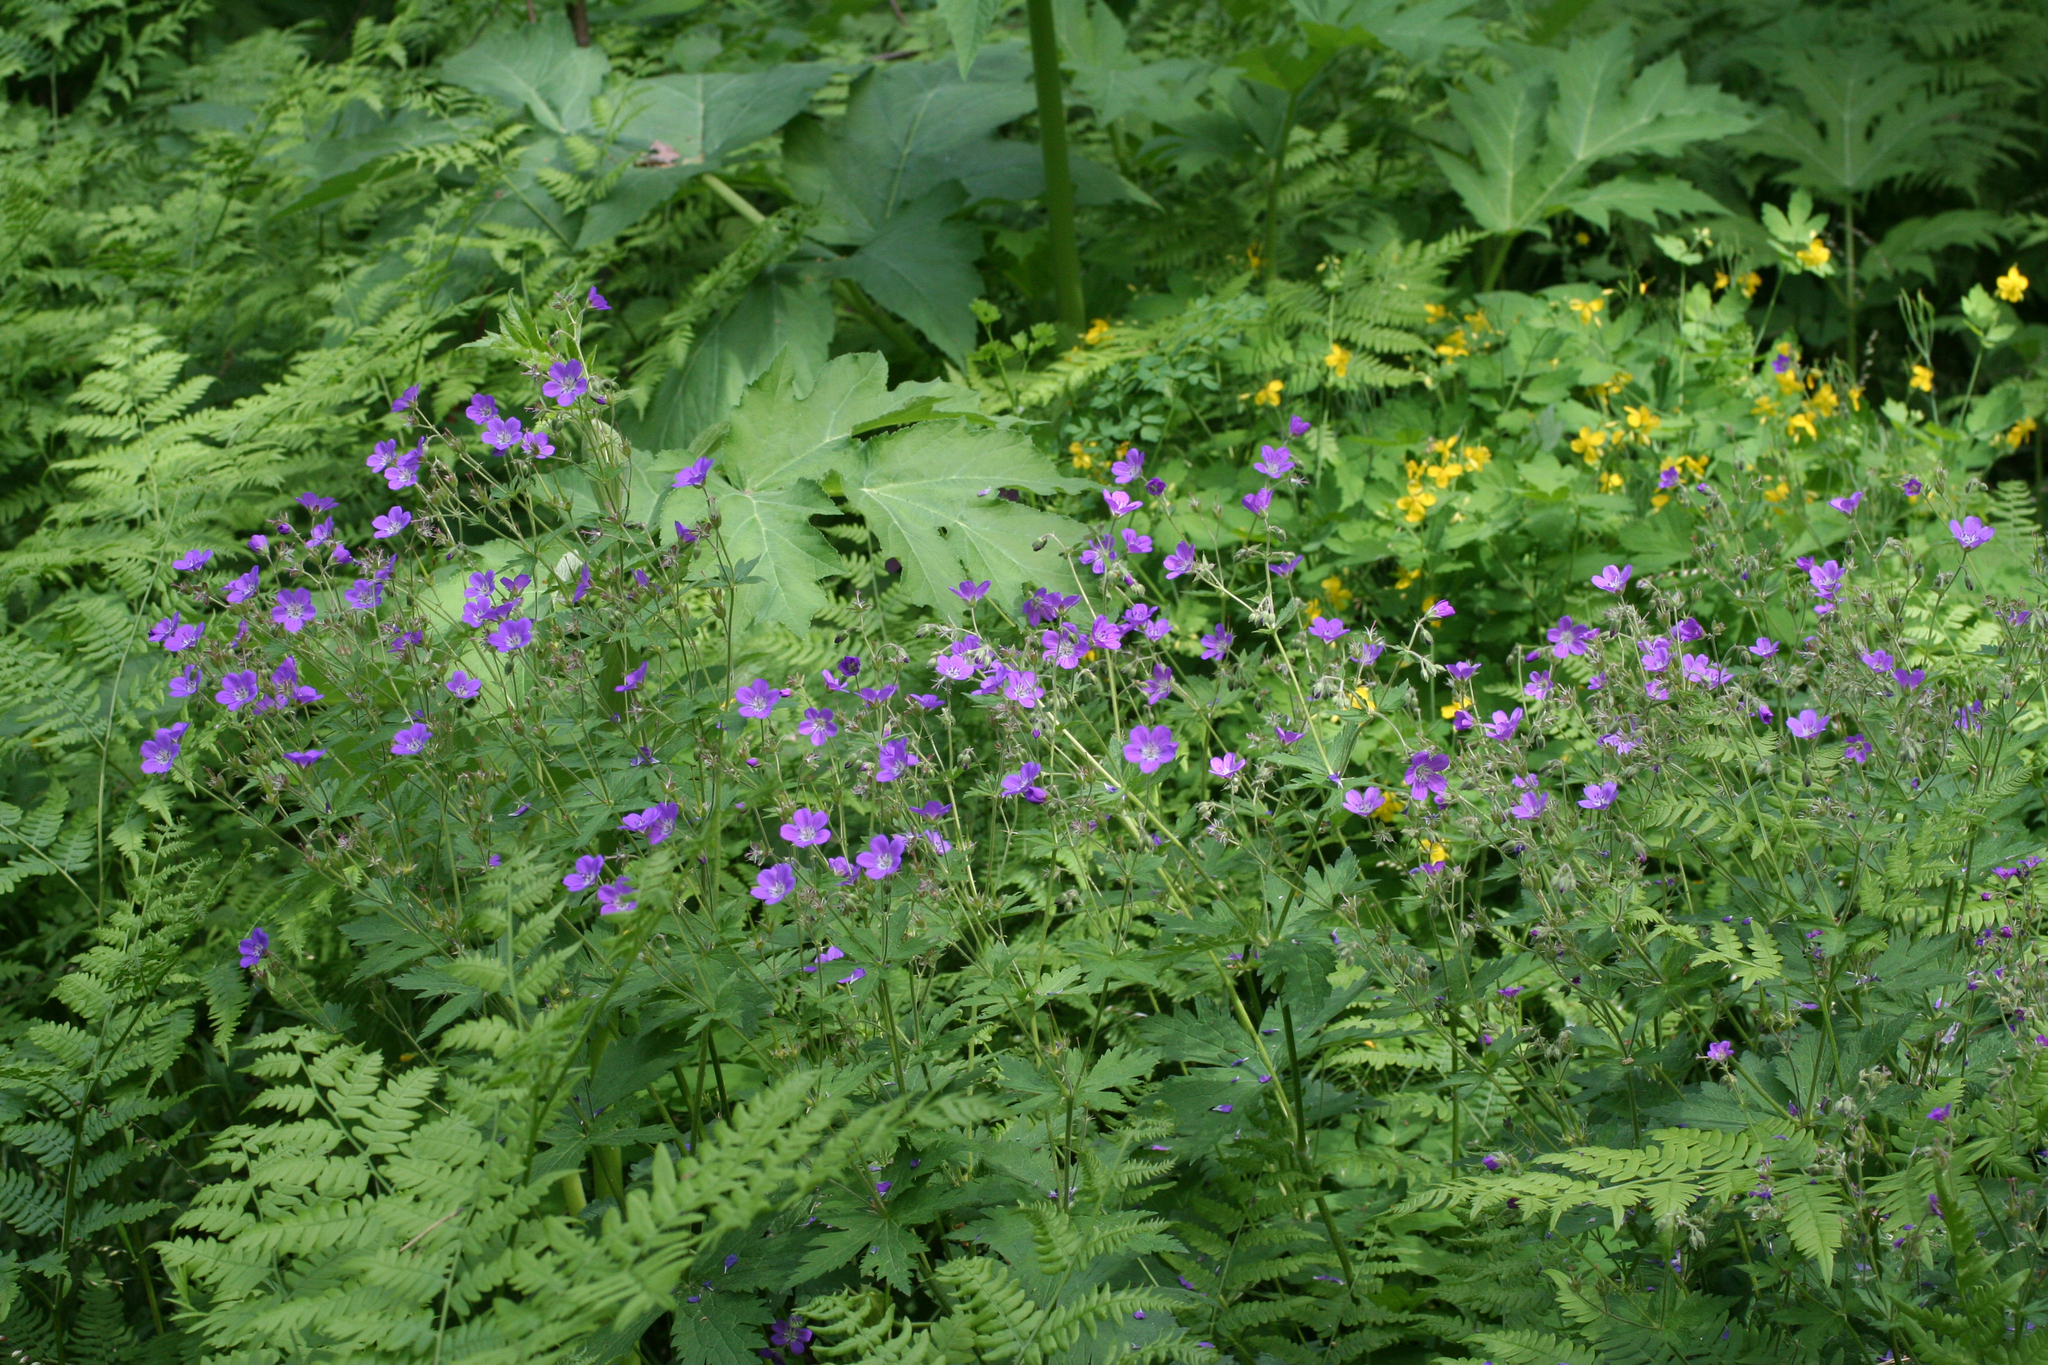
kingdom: Plantae
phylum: Tracheophyta
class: Magnoliopsida
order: Geraniales
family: Geraniaceae
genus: Geranium
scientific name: Geranium sylvaticum
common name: Wood crane's-bill
